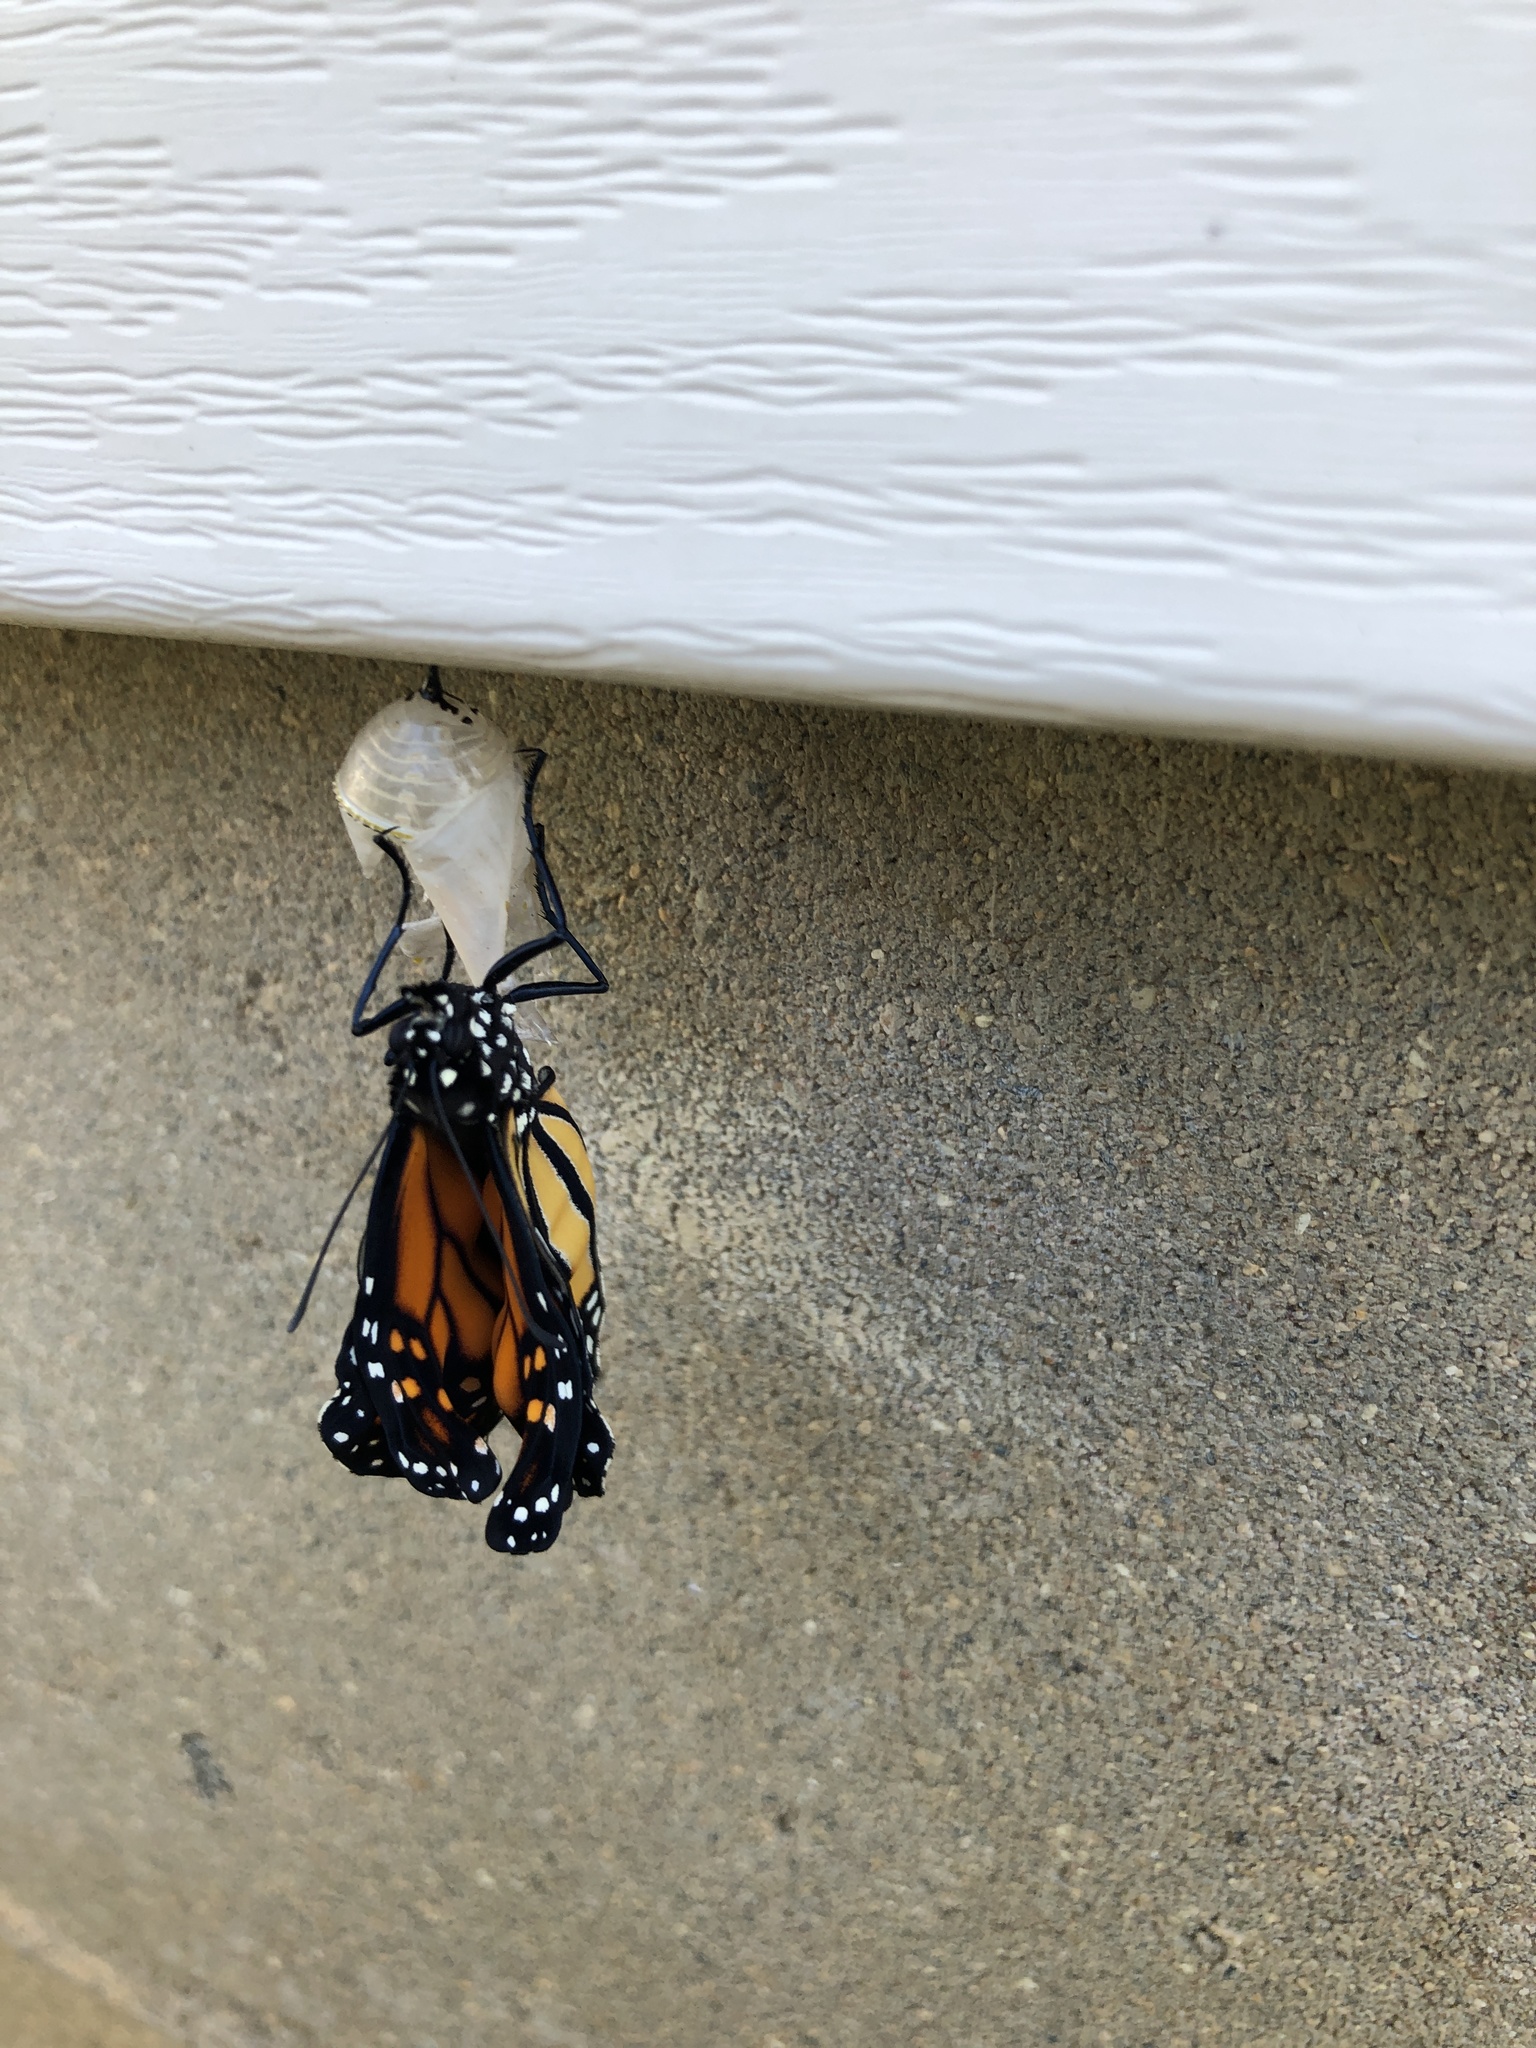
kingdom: Animalia
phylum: Arthropoda
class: Insecta
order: Lepidoptera
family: Nymphalidae
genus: Danaus
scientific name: Danaus plexippus
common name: Monarch
